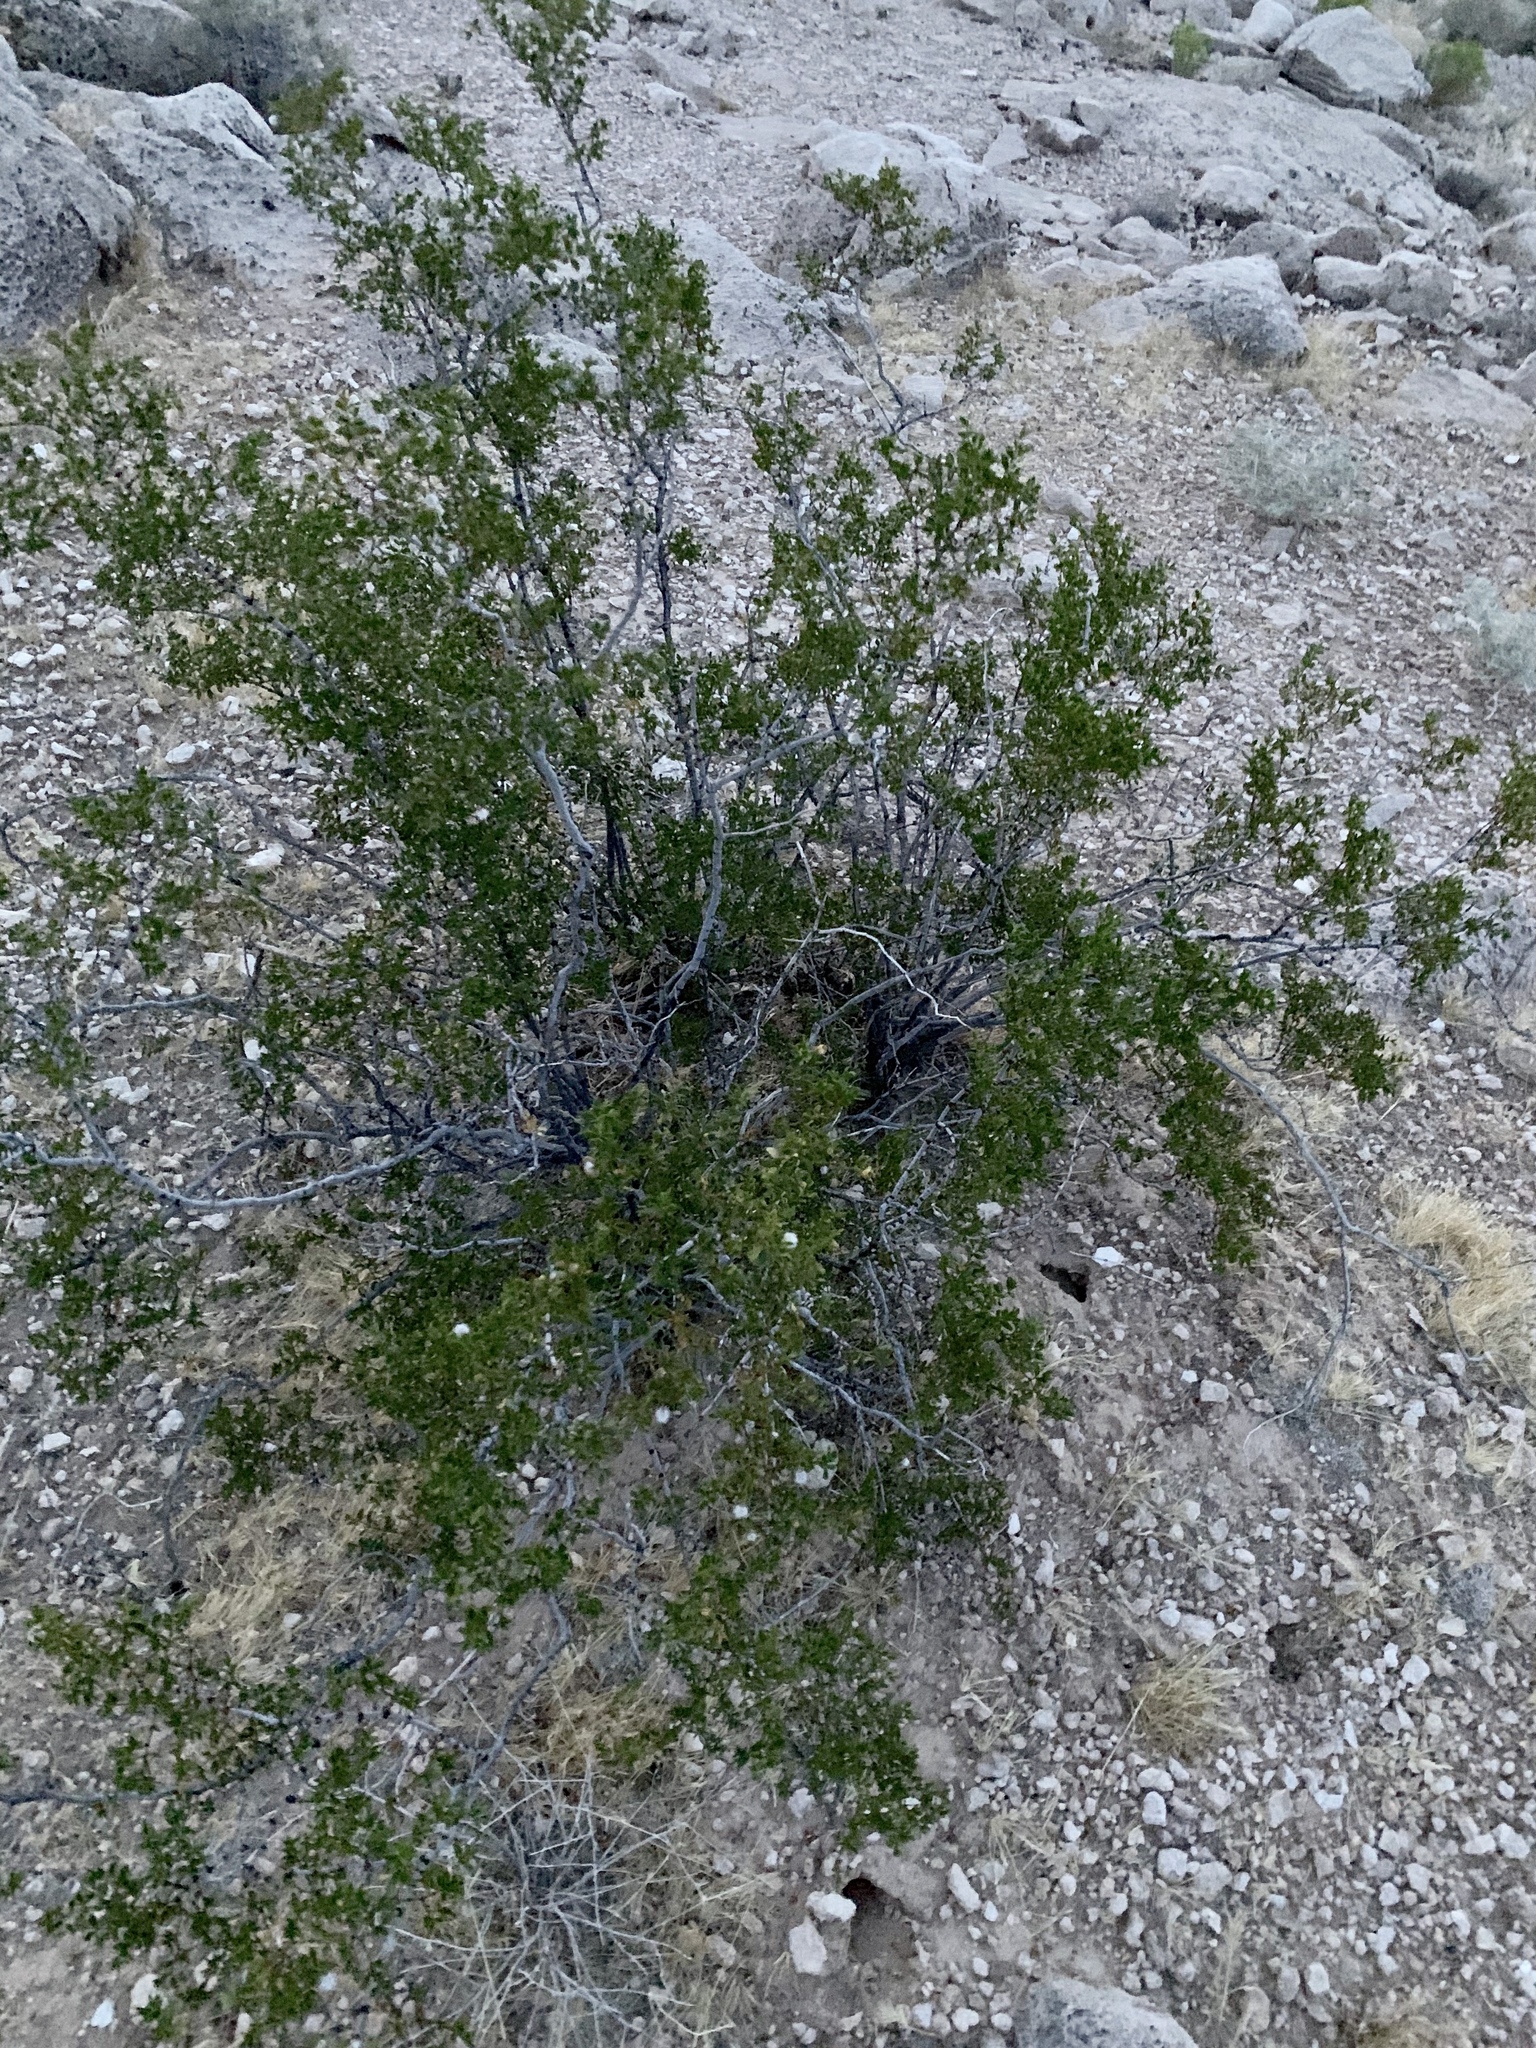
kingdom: Plantae
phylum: Tracheophyta
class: Magnoliopsida
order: Zygophyllales
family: Zygophyllaceae
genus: Larrea
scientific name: Larrea tridentata
